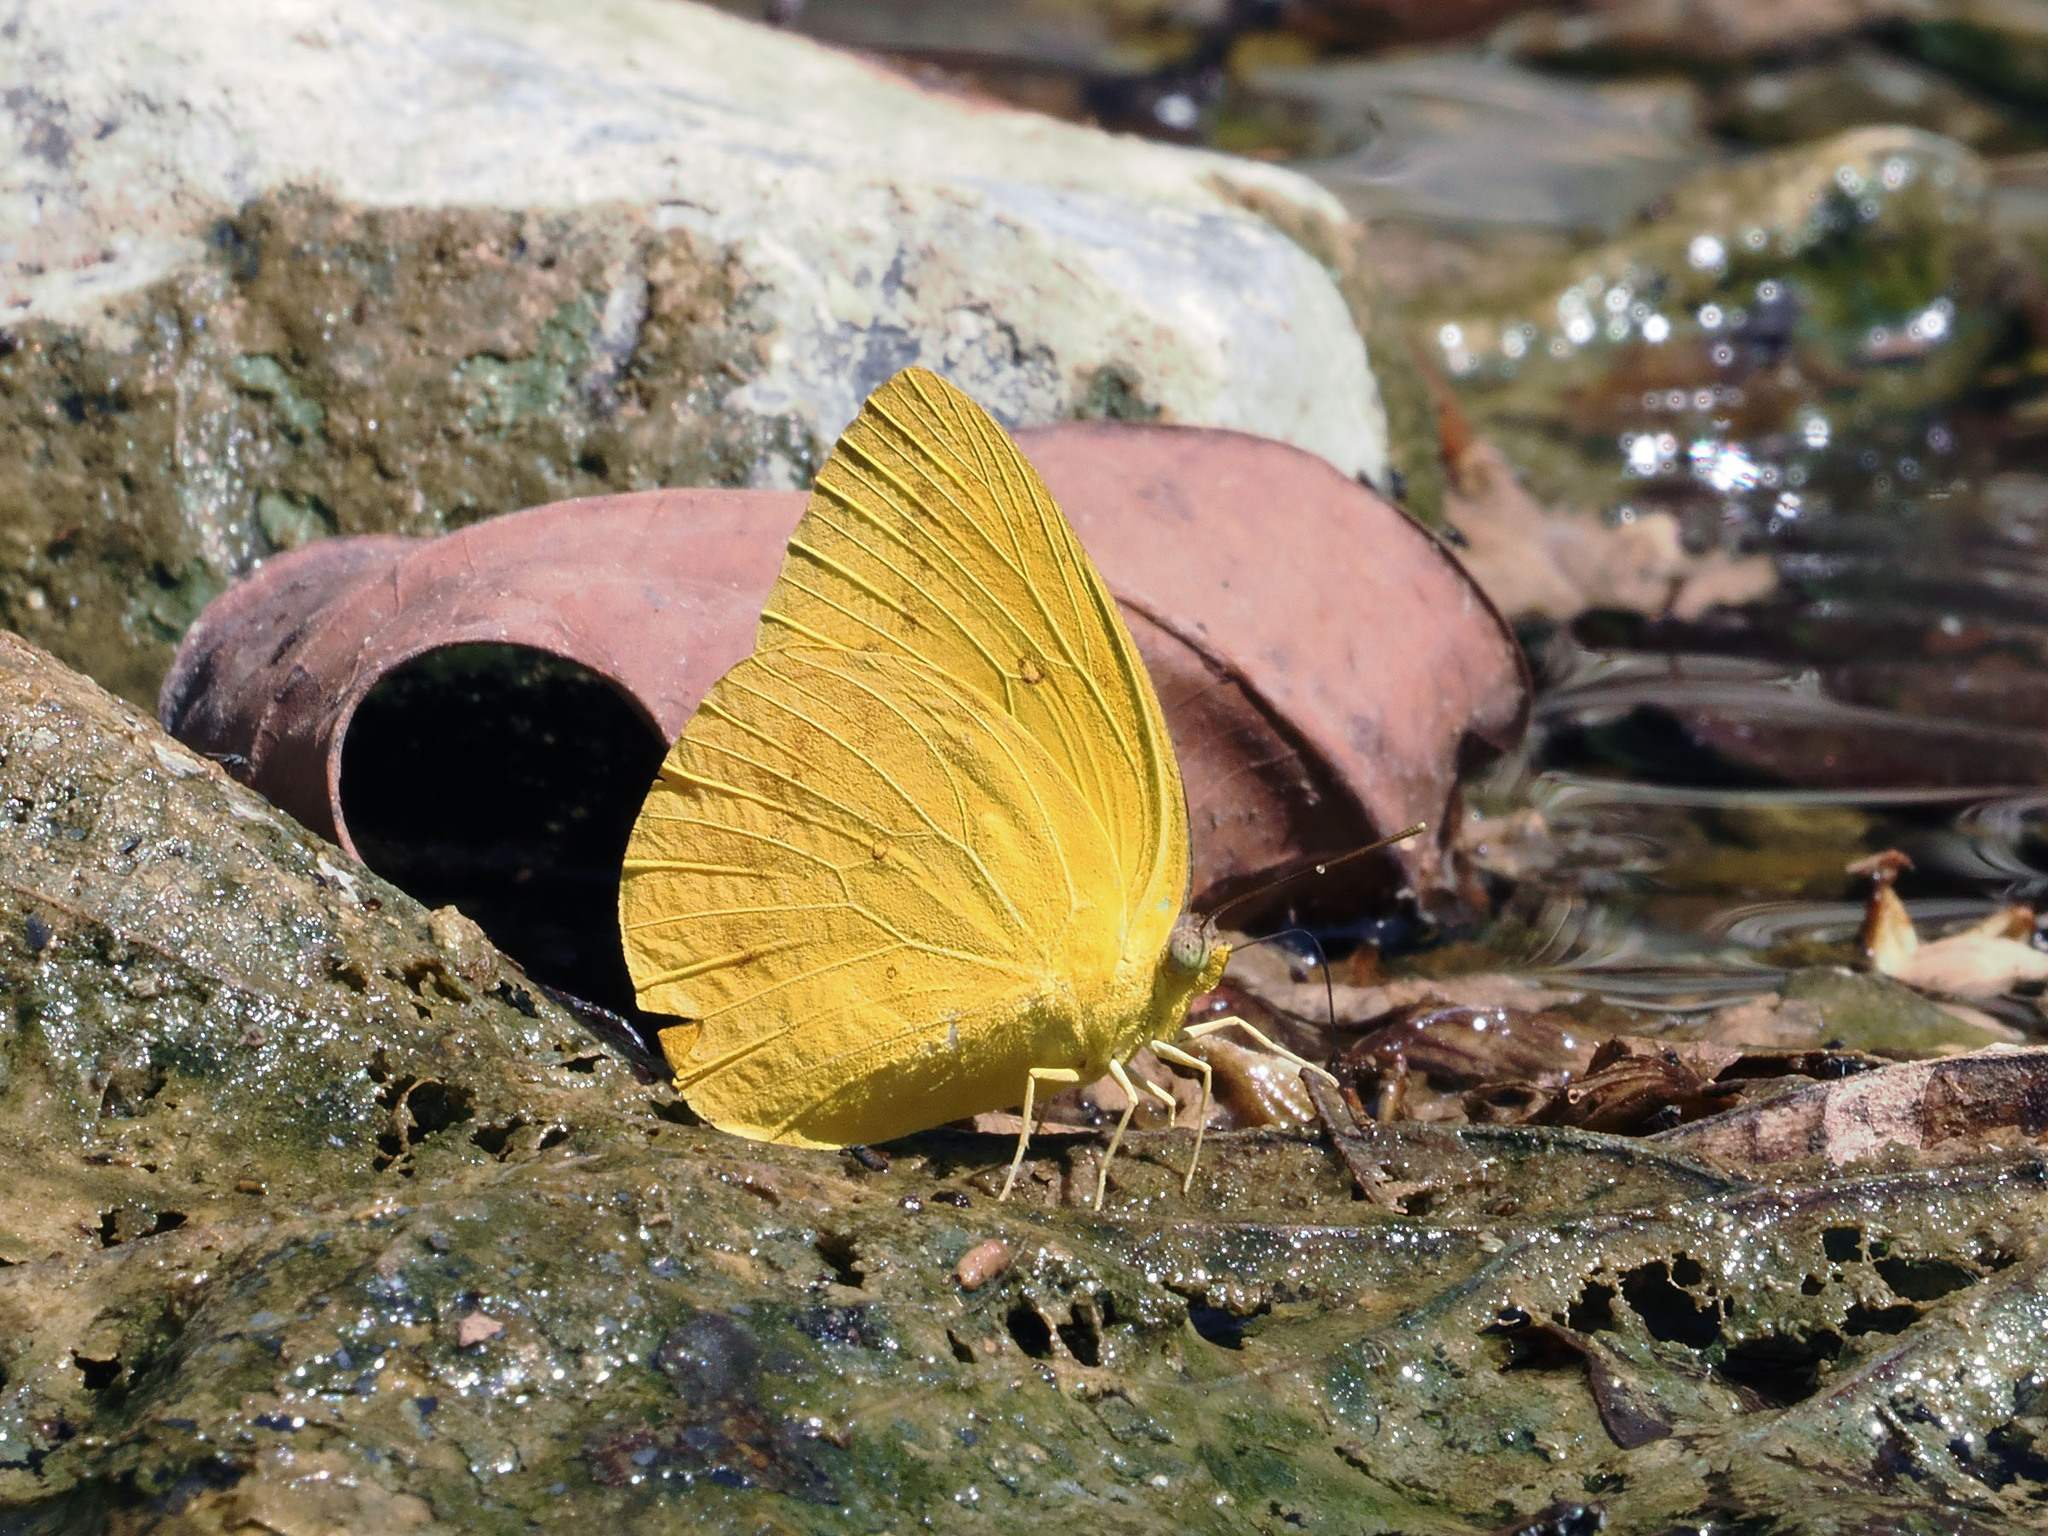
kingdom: Animalia
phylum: Arthropoda
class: Insecta
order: Lepidoptera
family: Pieridae
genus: Catopsilia
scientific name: Catopsilia scylla
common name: Orange emigrant
